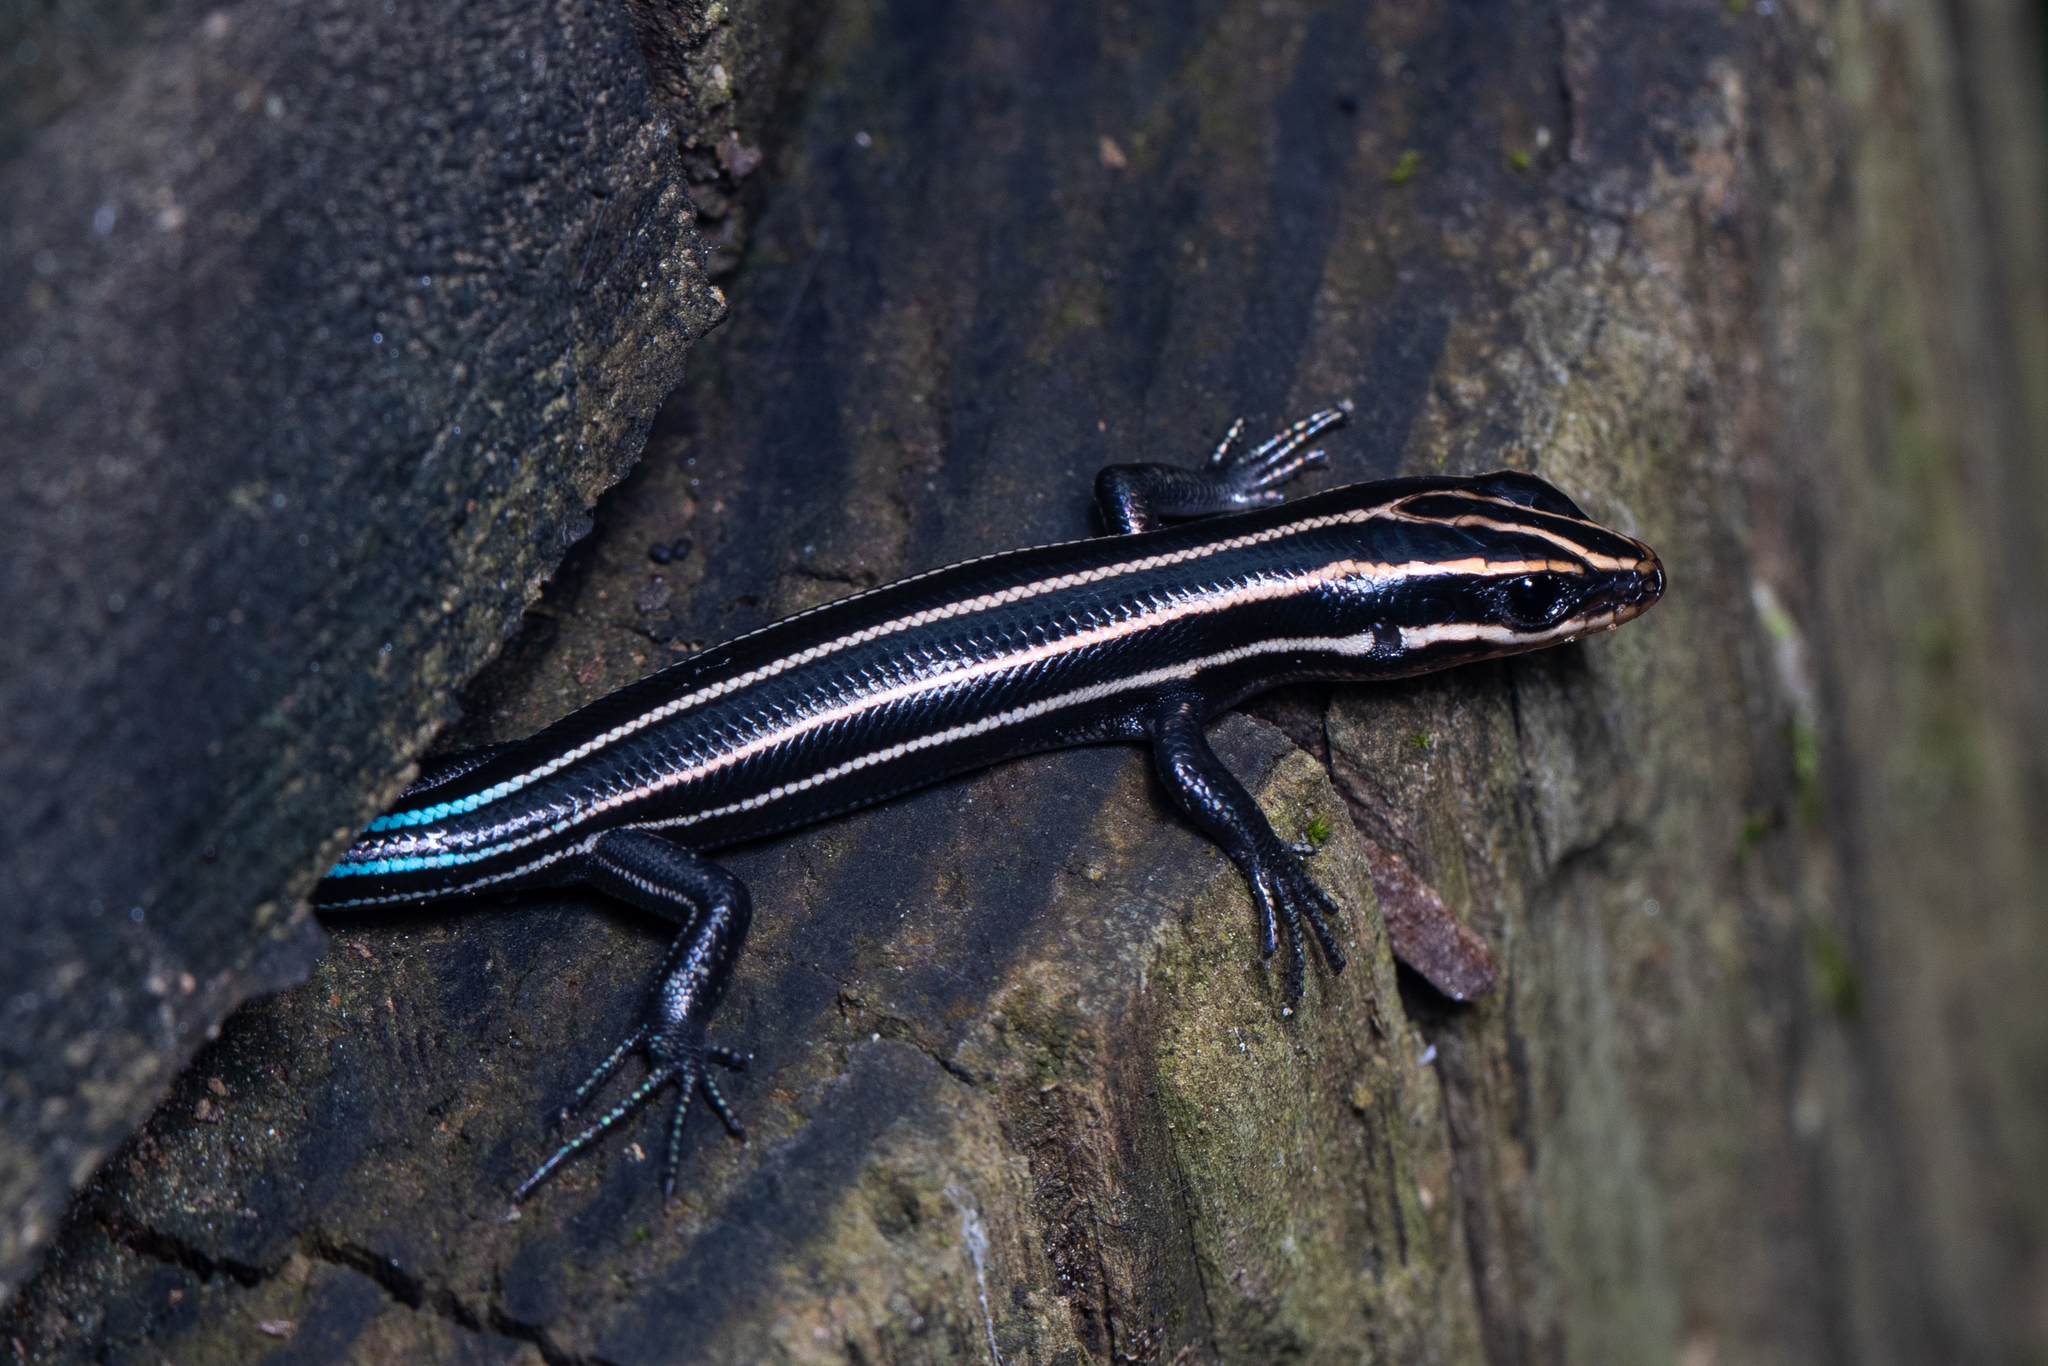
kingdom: Animalia
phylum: Chordata
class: Squamata
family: Scincidae
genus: Plestiodon
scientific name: Plestiodon fasciatus
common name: Five-lined skink
